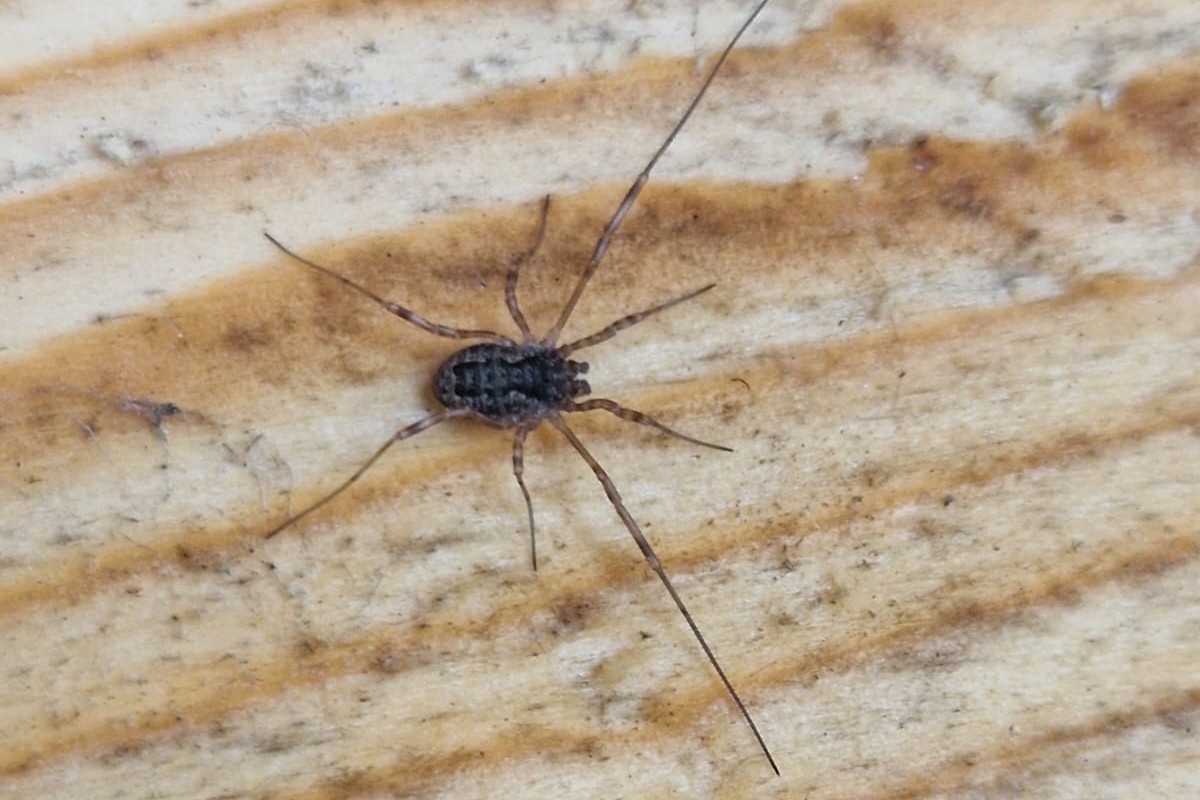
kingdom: Animalia
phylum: Arthropoda
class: Arachnida
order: Opiliones
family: Phalangiidae
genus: Oligolophus
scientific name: Oligolophus tridens
